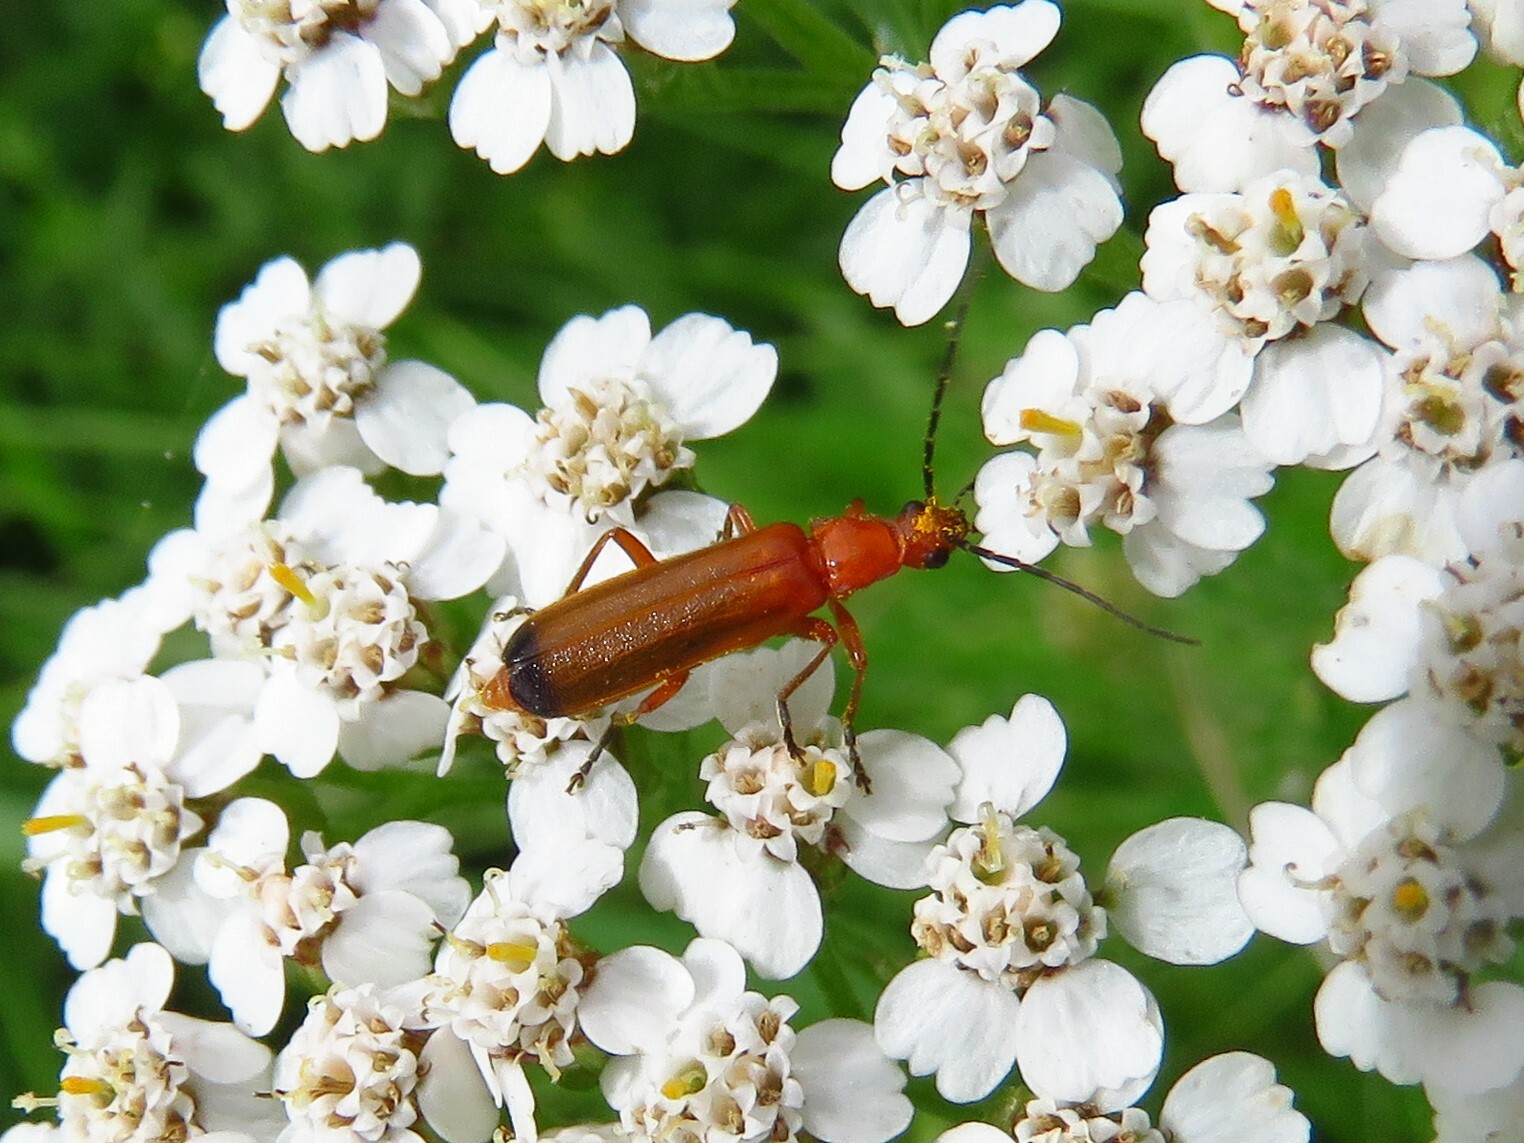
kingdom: Animalia
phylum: Arthropoda
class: Insecta
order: Coleoptera
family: Cantharidae
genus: Rhagonycha
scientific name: Rhagonycha fulva
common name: Common red soldier beetle
